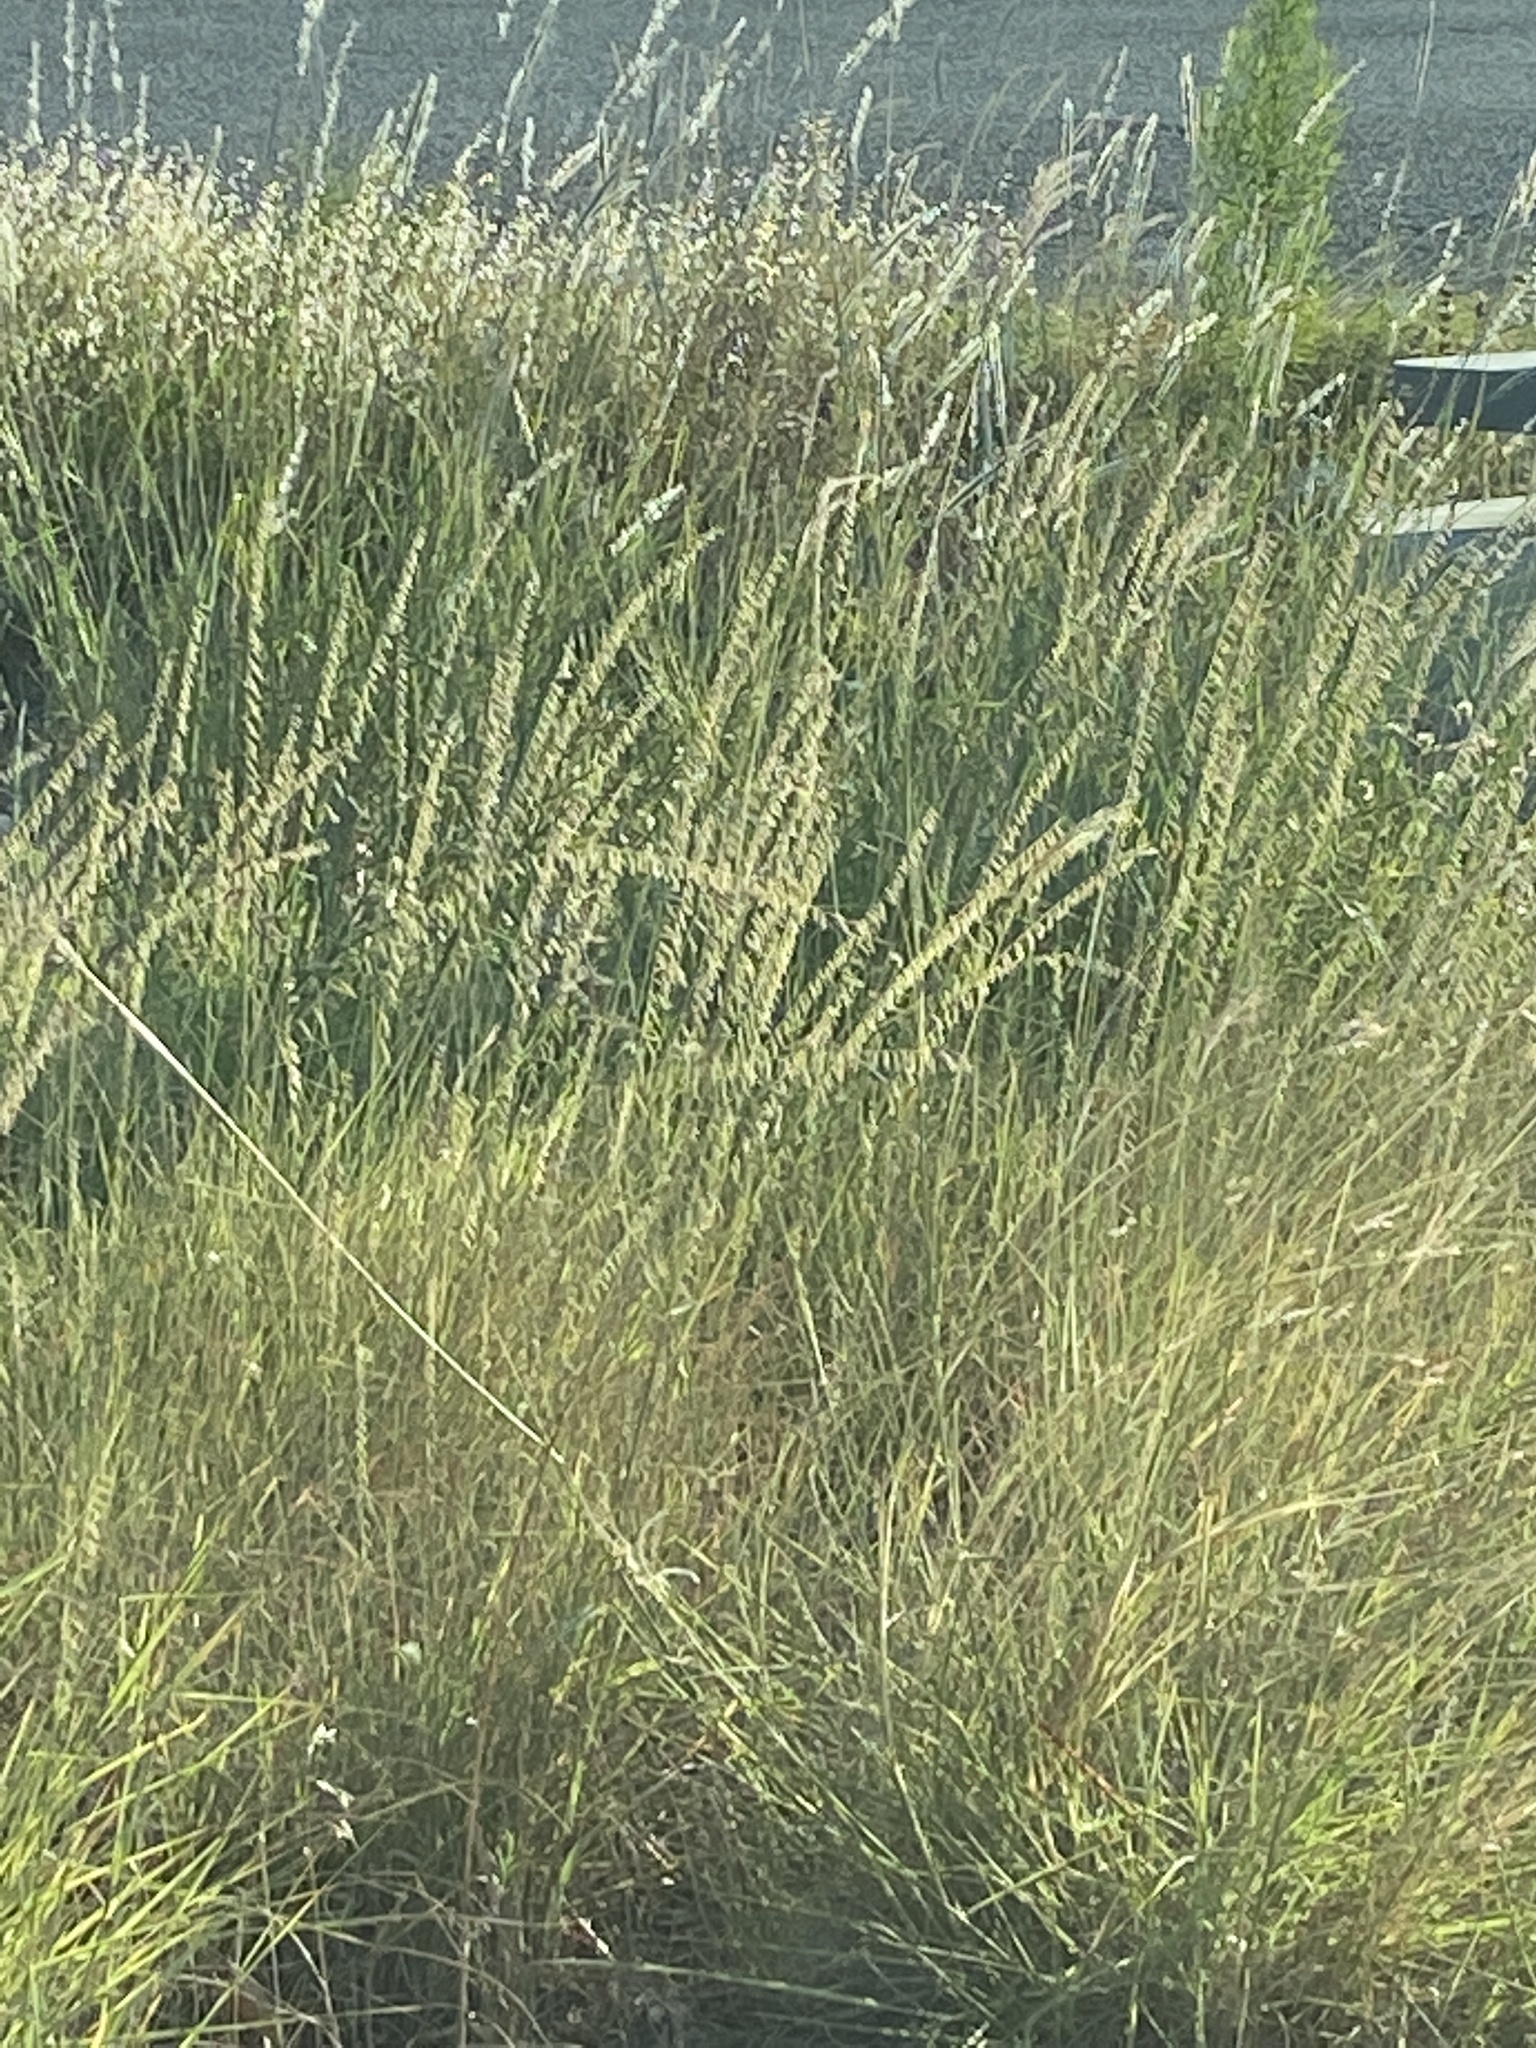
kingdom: Plantae
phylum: Tracheophyta
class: Liliopsida
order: Poales
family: Poaceae
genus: Bouteloua
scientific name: Bouteloua curtipendula
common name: Side-oats grama
